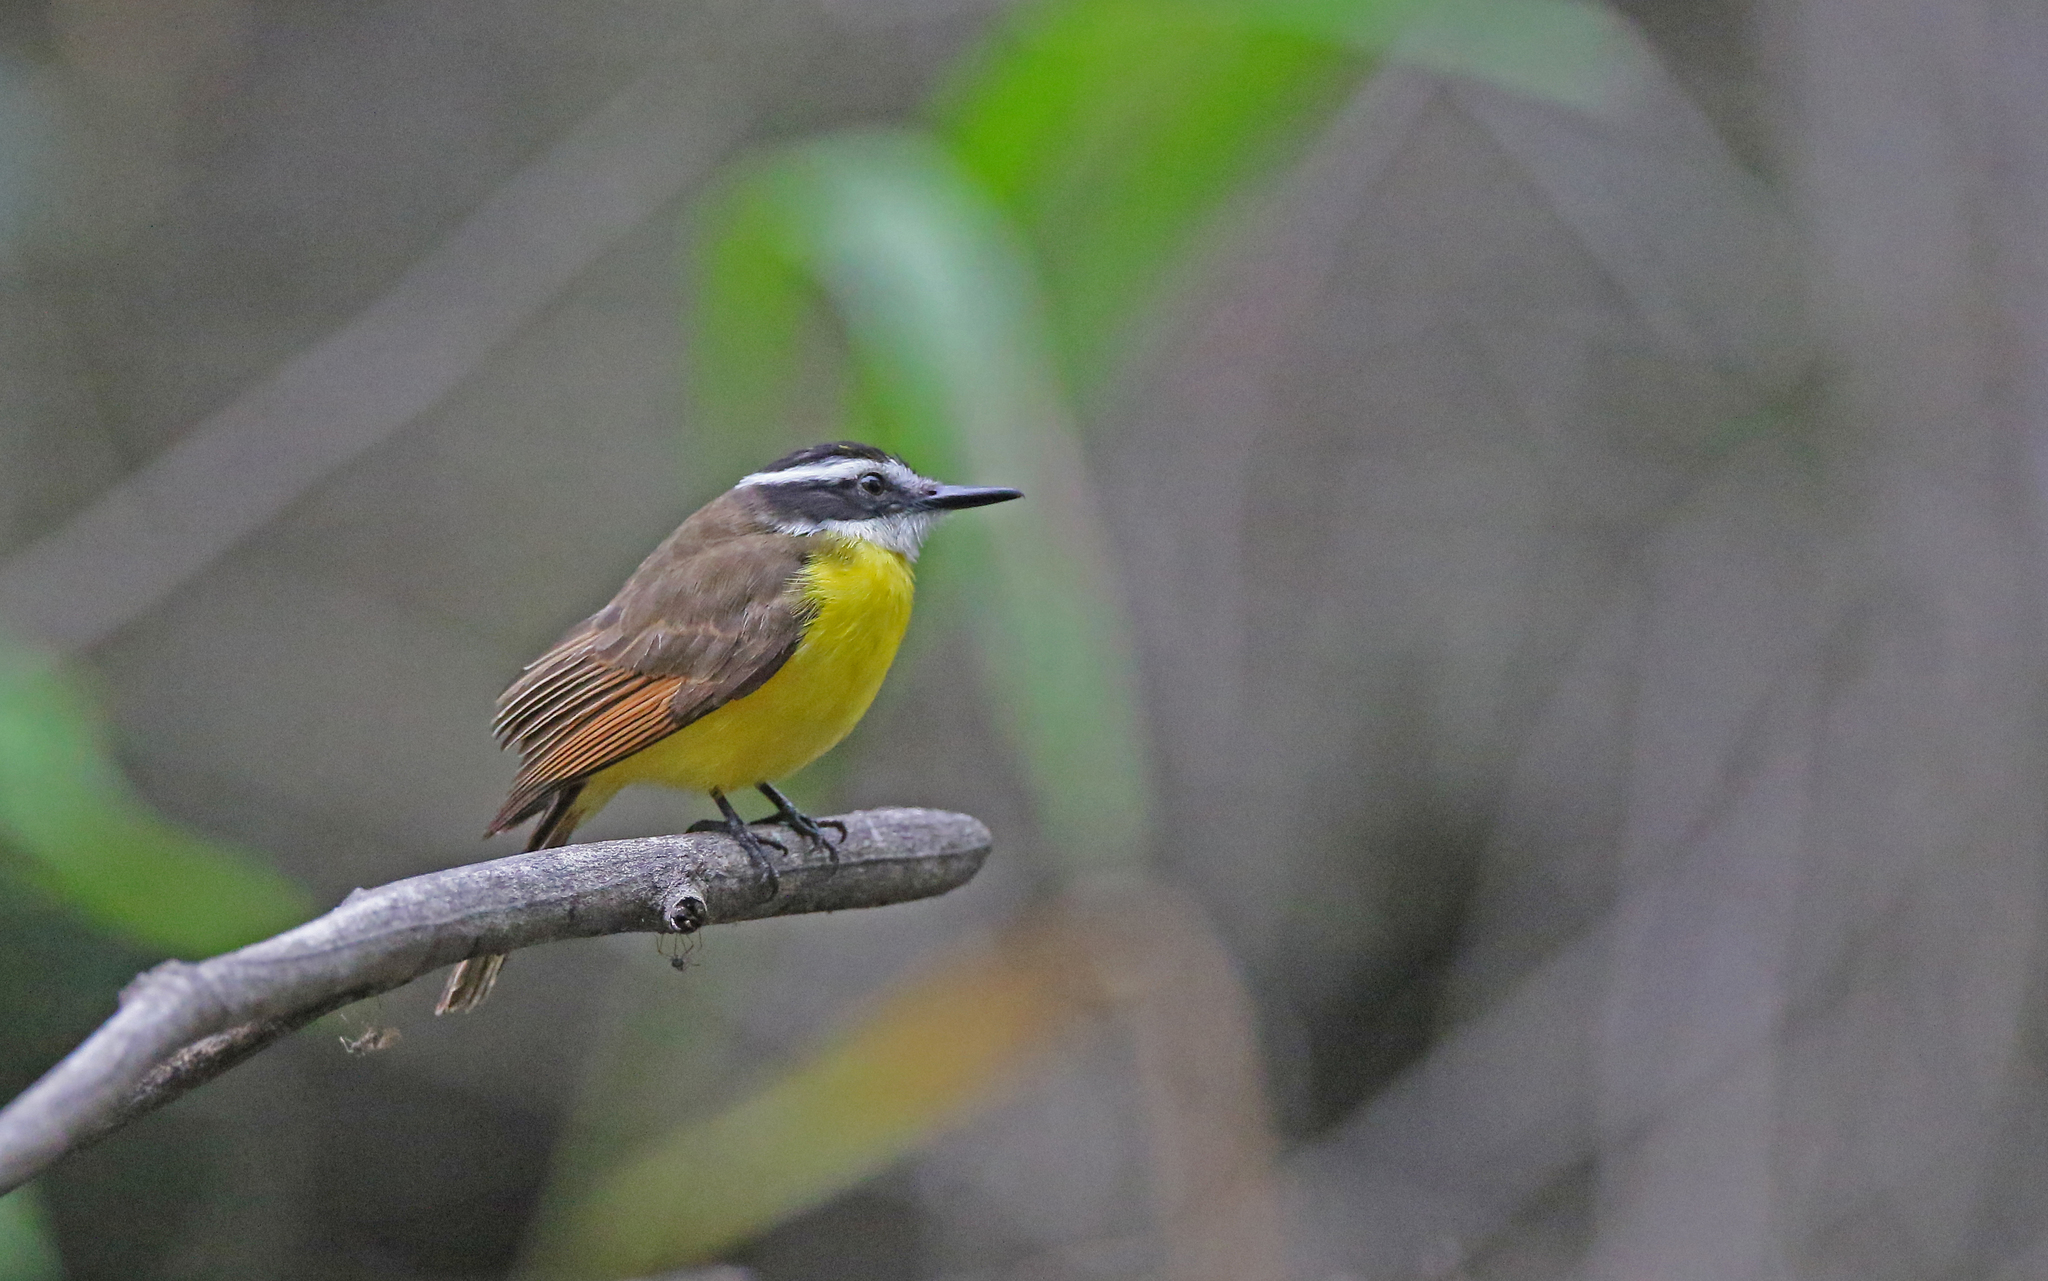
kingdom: Animalia
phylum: Chordata
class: Aves
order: Passeriformes
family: Tyrannidae
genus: Pitangus
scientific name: Pitangus lictor
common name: Lesser kiskadee
